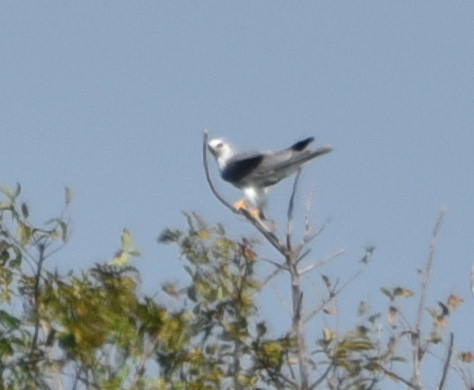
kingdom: Animalia
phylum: Chordata
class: Aves
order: Accipitriformes
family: Accipitridae
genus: Elanus
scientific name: Elanus leucurus
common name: White-tailed kite
